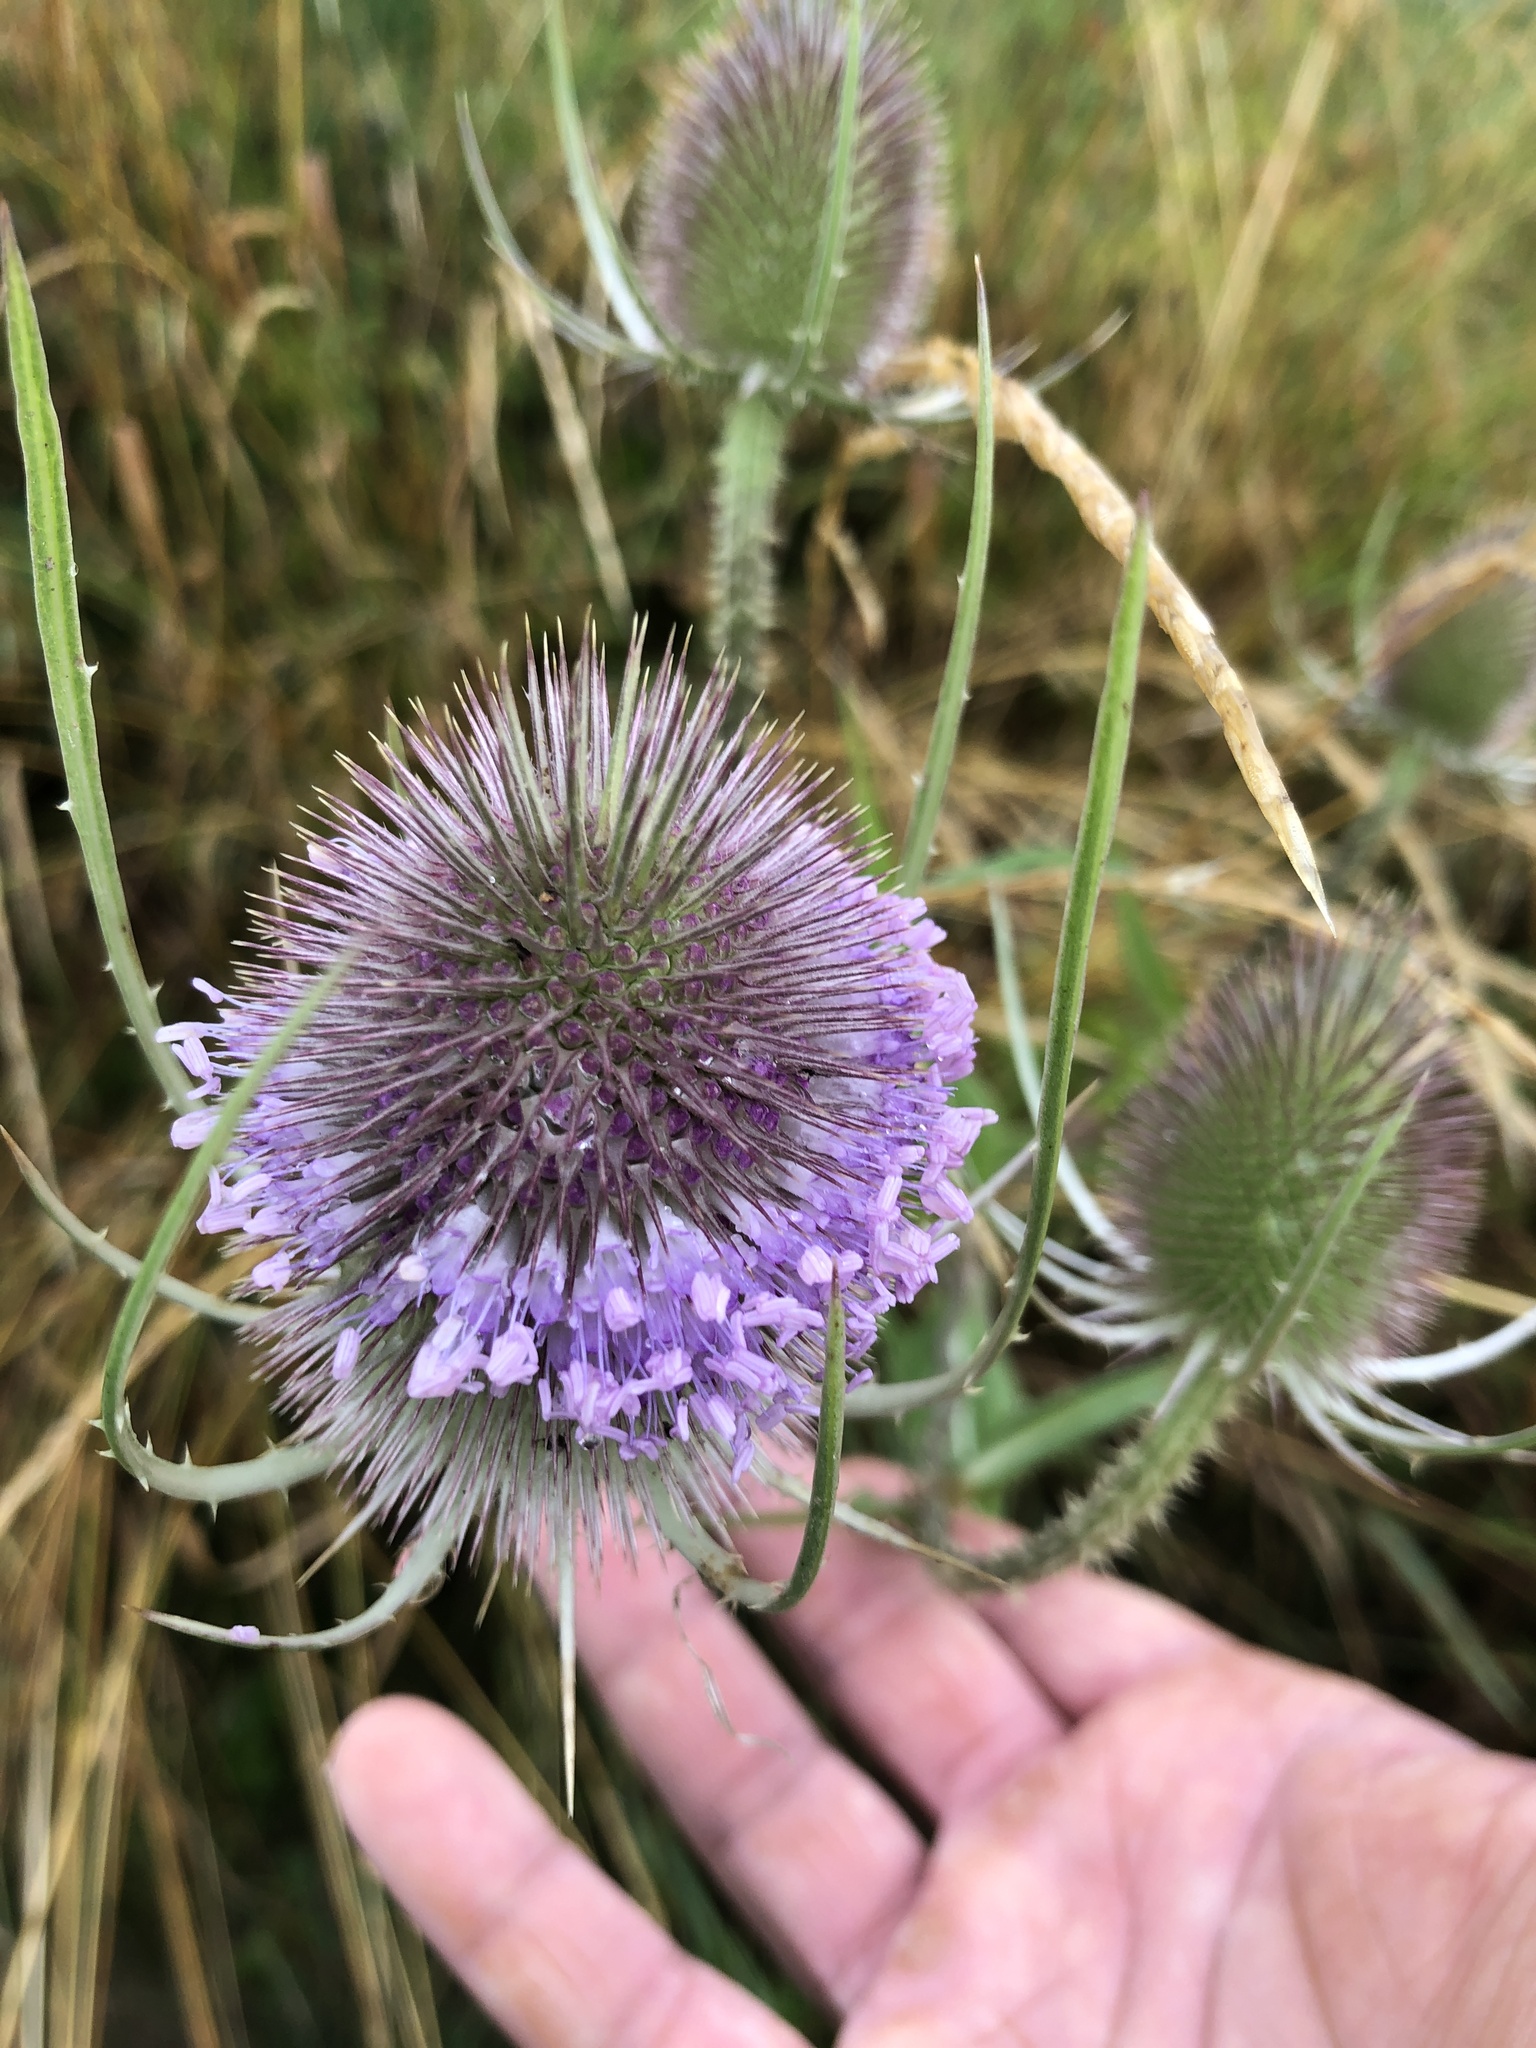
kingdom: Plantae
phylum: Tracheophyta
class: Magnoliopsida
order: Dipsacales
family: Caprifoliaceae
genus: Dipsacus
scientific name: Dipsacus fullonum
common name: Teasel
